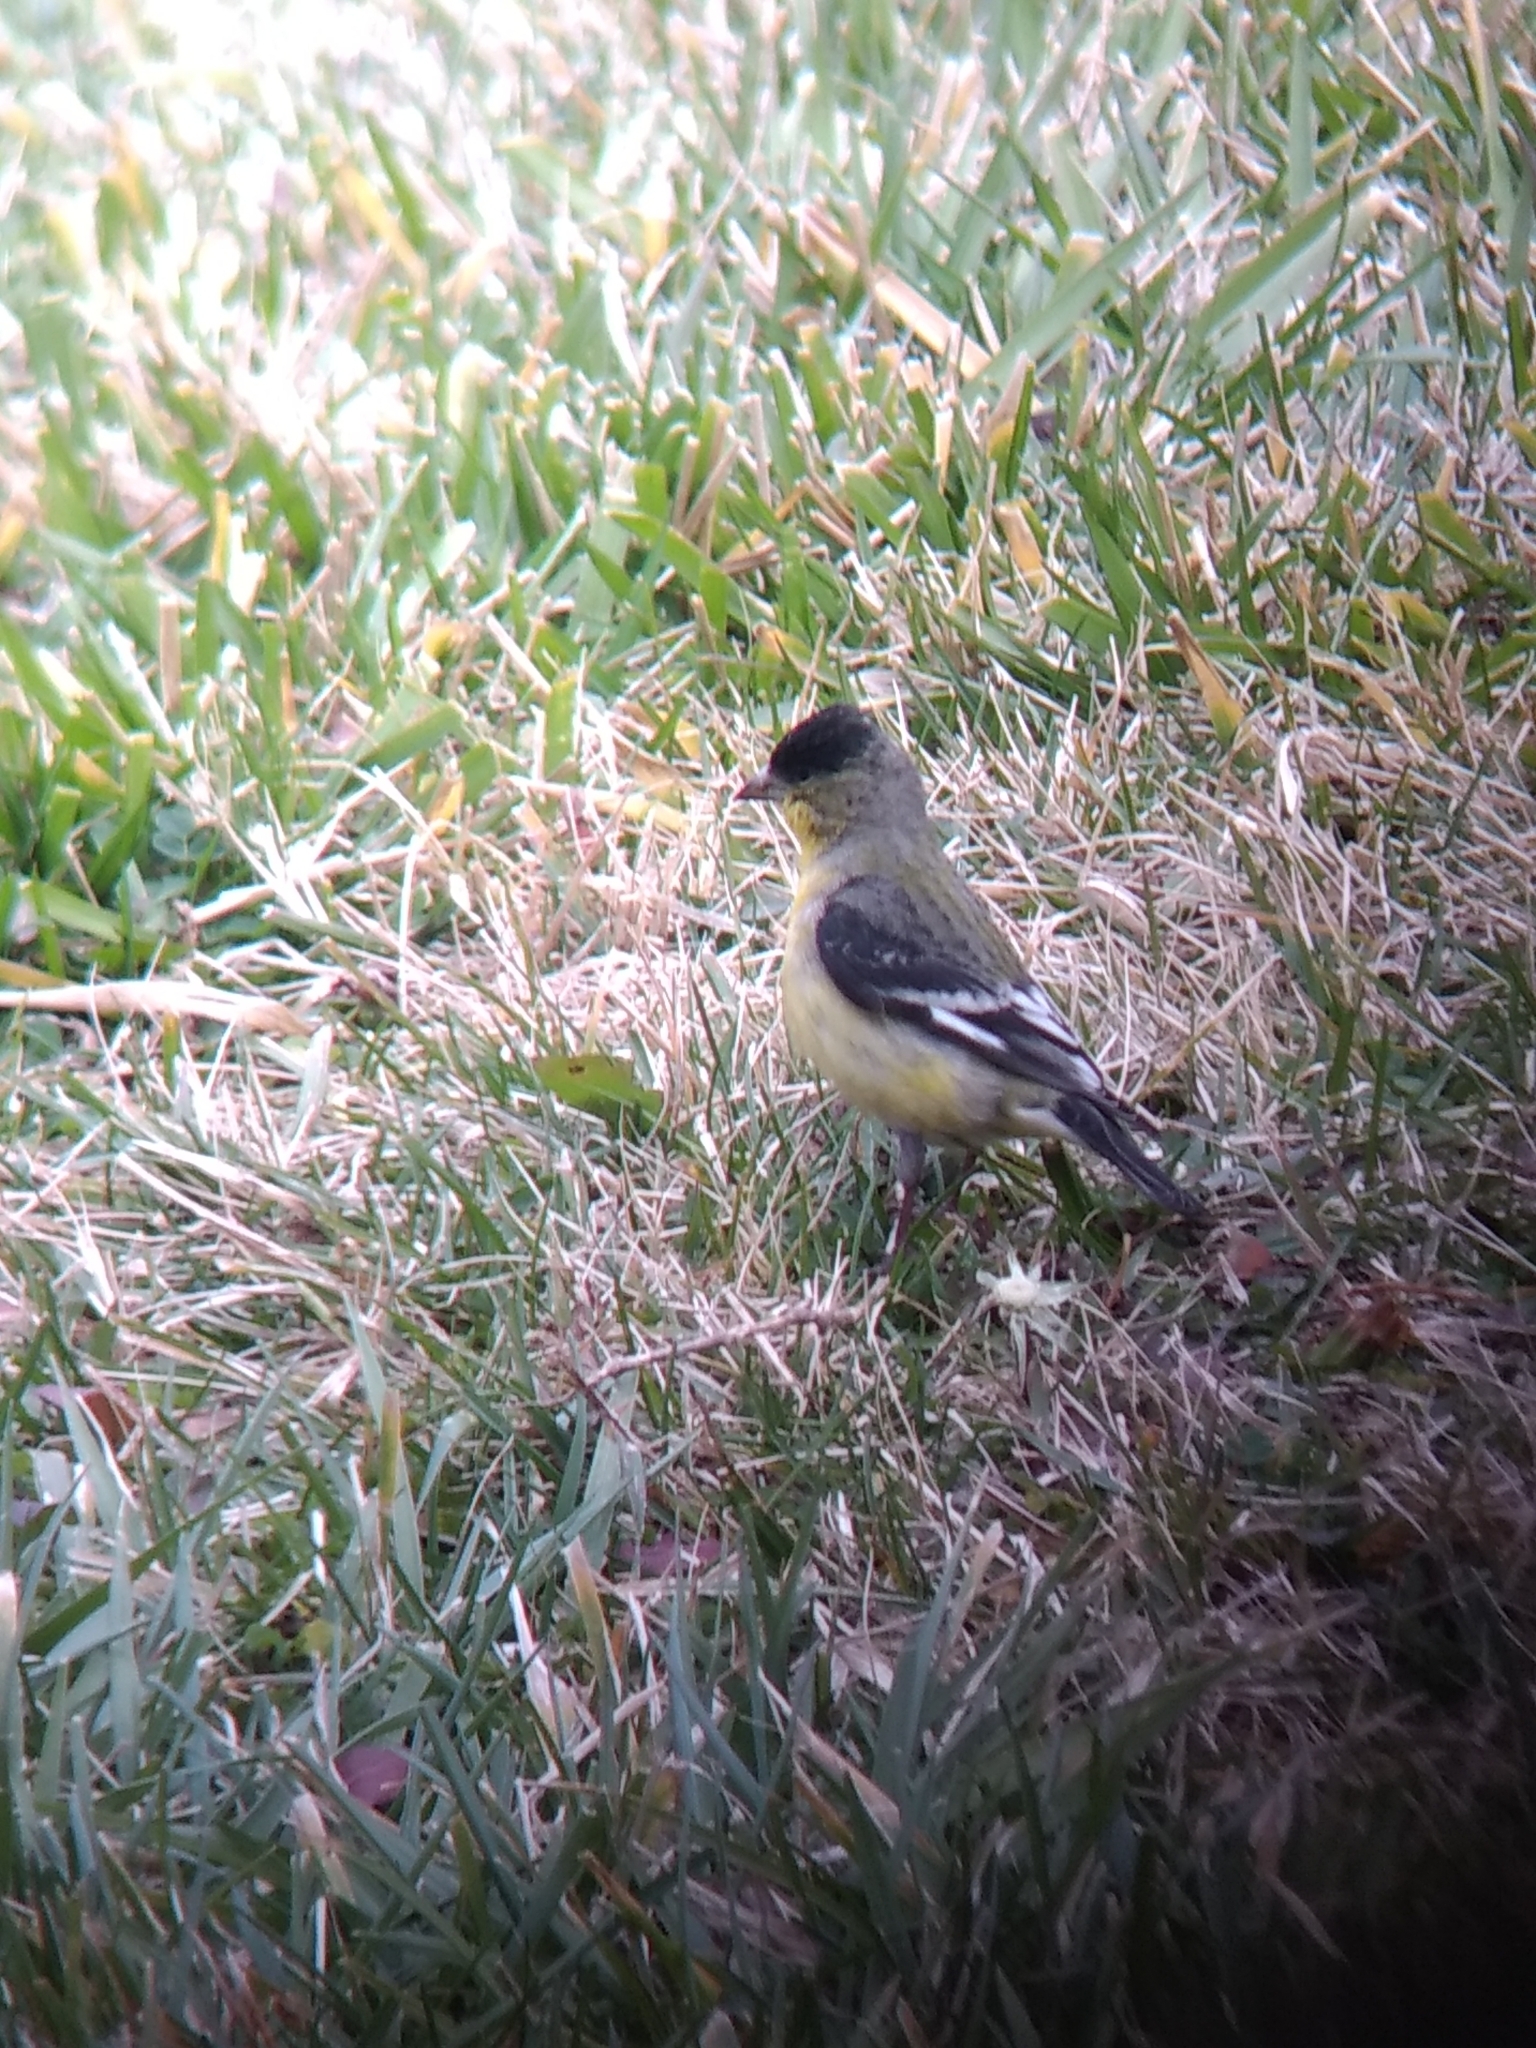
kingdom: Animalia
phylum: Chordata
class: Aves
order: Passeriformes
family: Fringillidae
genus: Spinus
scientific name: Spinus psaltria
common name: Lesser goldfinch
